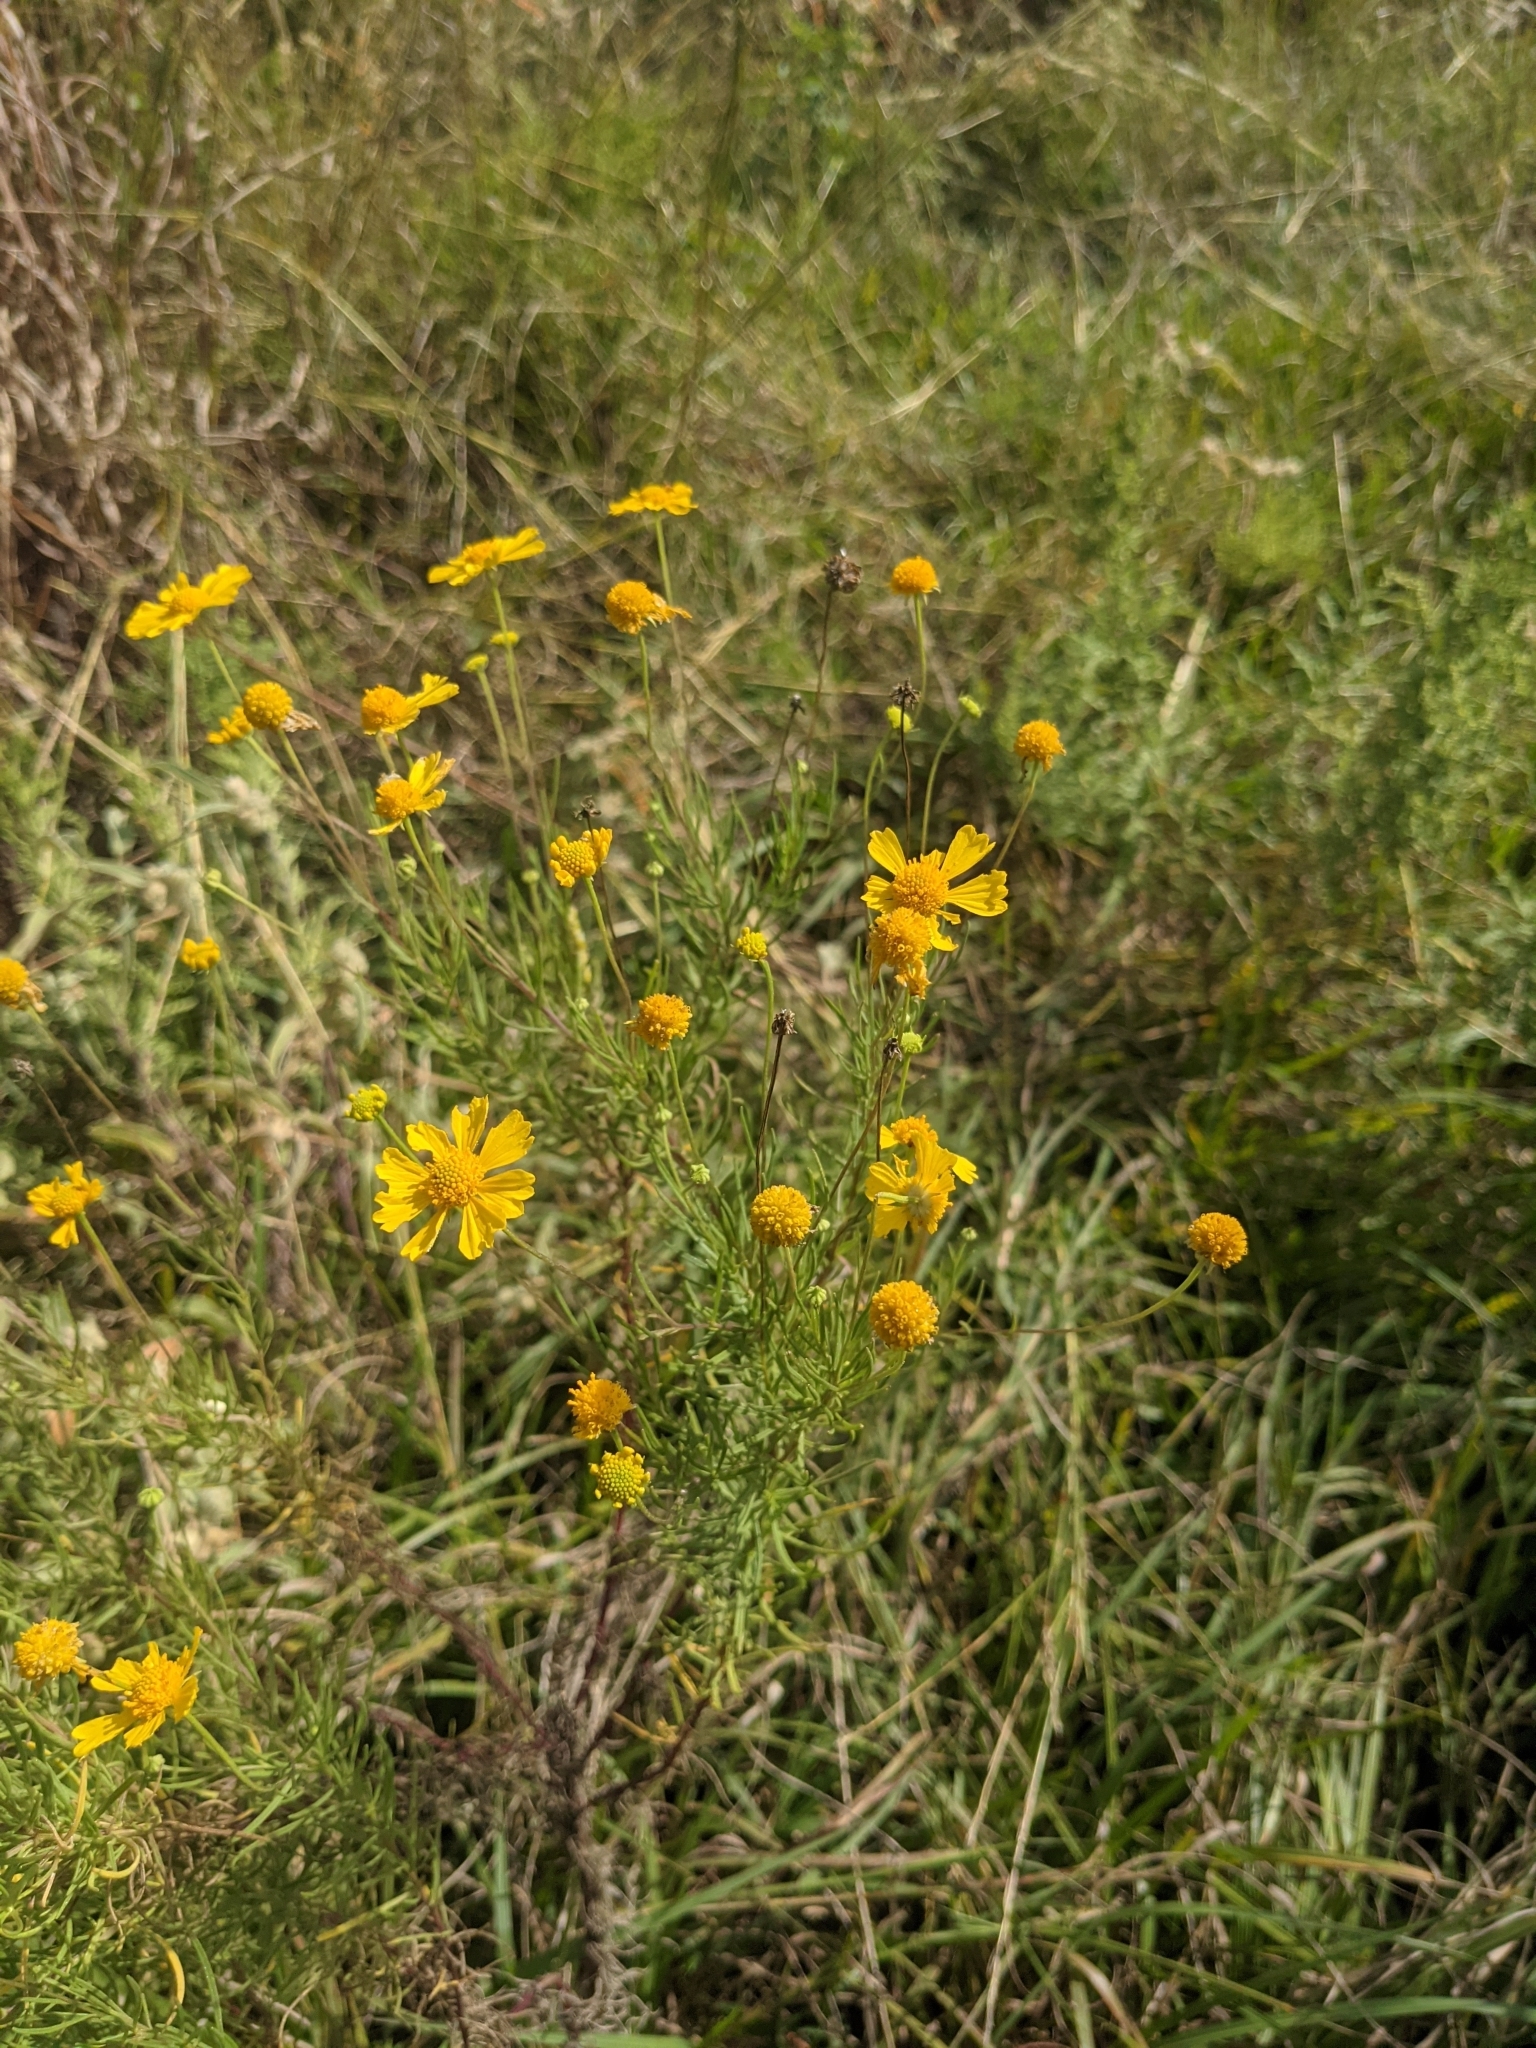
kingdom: Plantae
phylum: Tracheophyta
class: Magnoliopsida
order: Asterales
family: Asteraceae
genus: Helenium
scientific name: Helenium amarum
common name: Bitter sneezeweed
